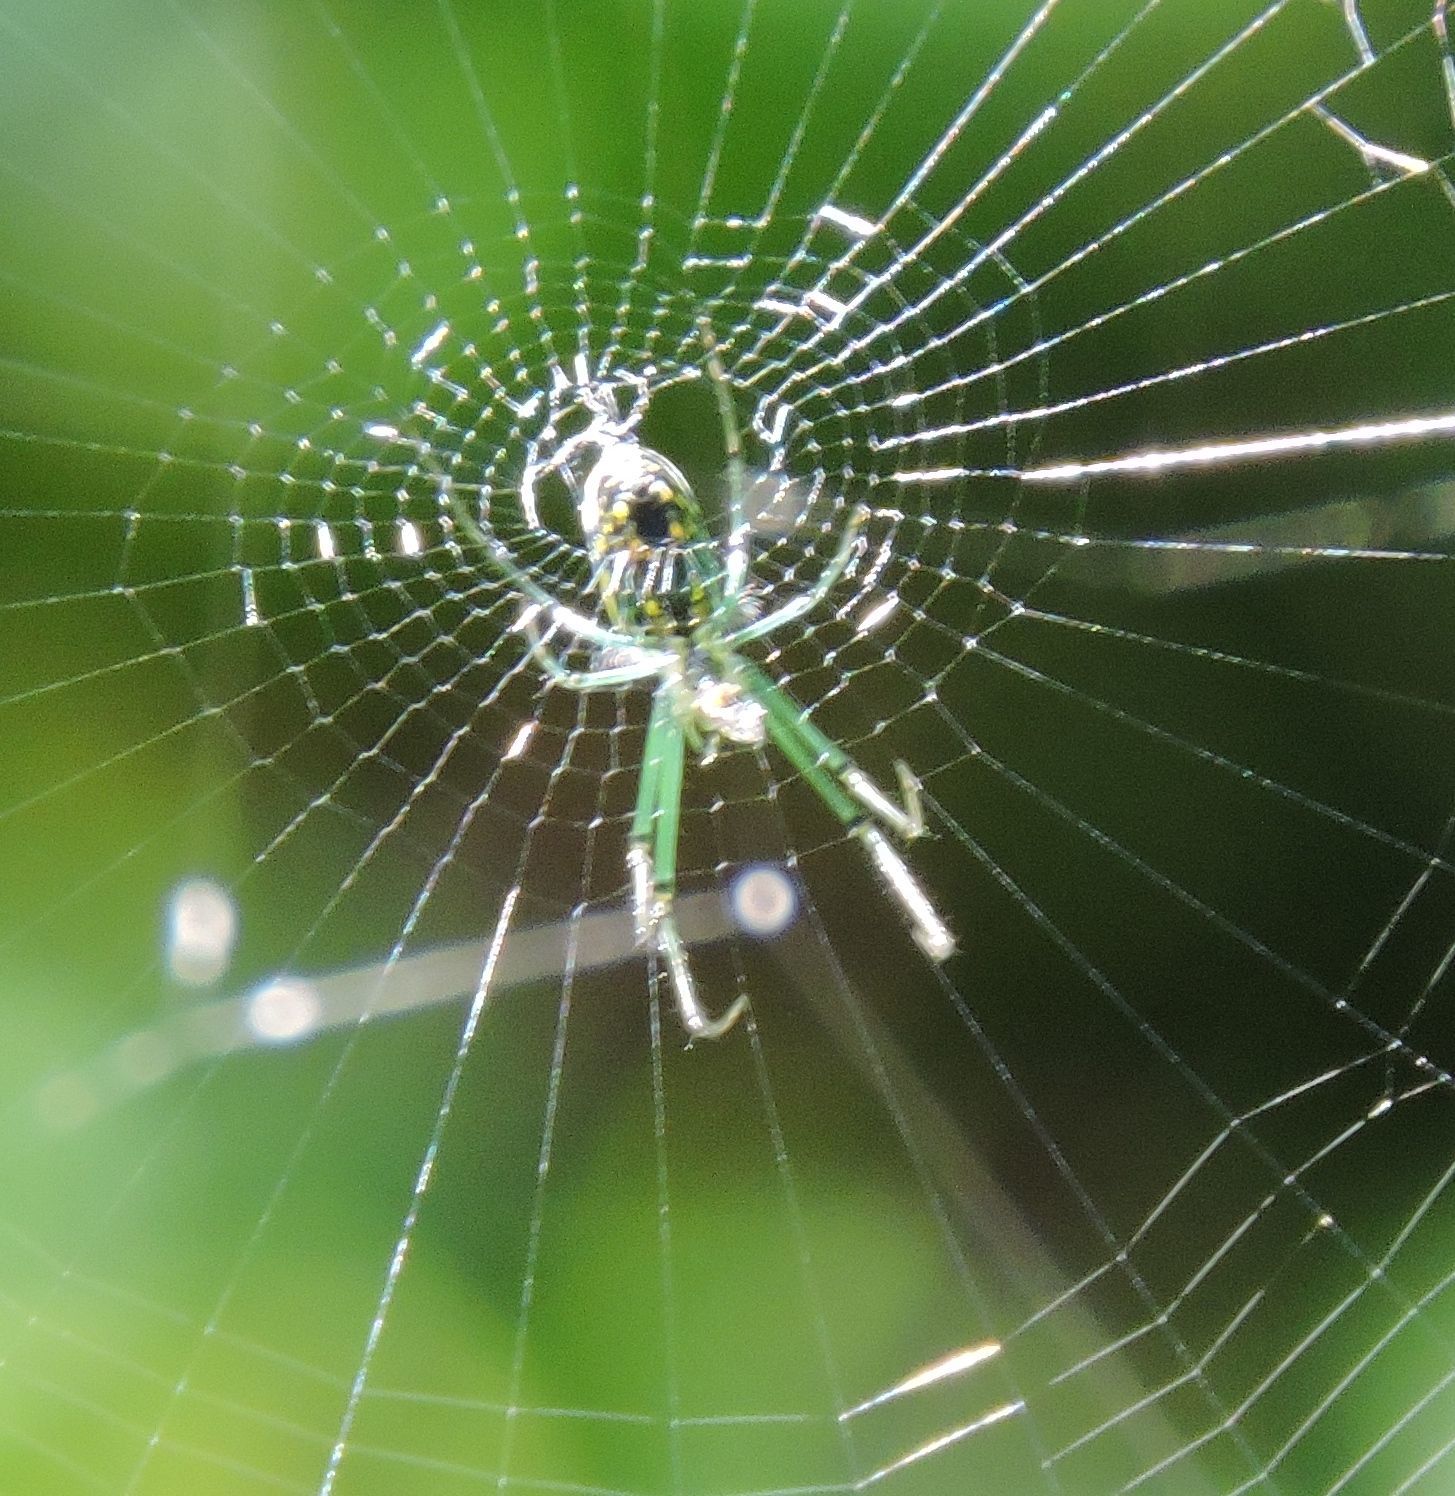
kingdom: Animalia
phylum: Arthropoda
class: Arachnida
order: Araneae
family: Tetragnathidae
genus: Leucauge
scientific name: Leucauge venusta
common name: Longjawed orb weavers
